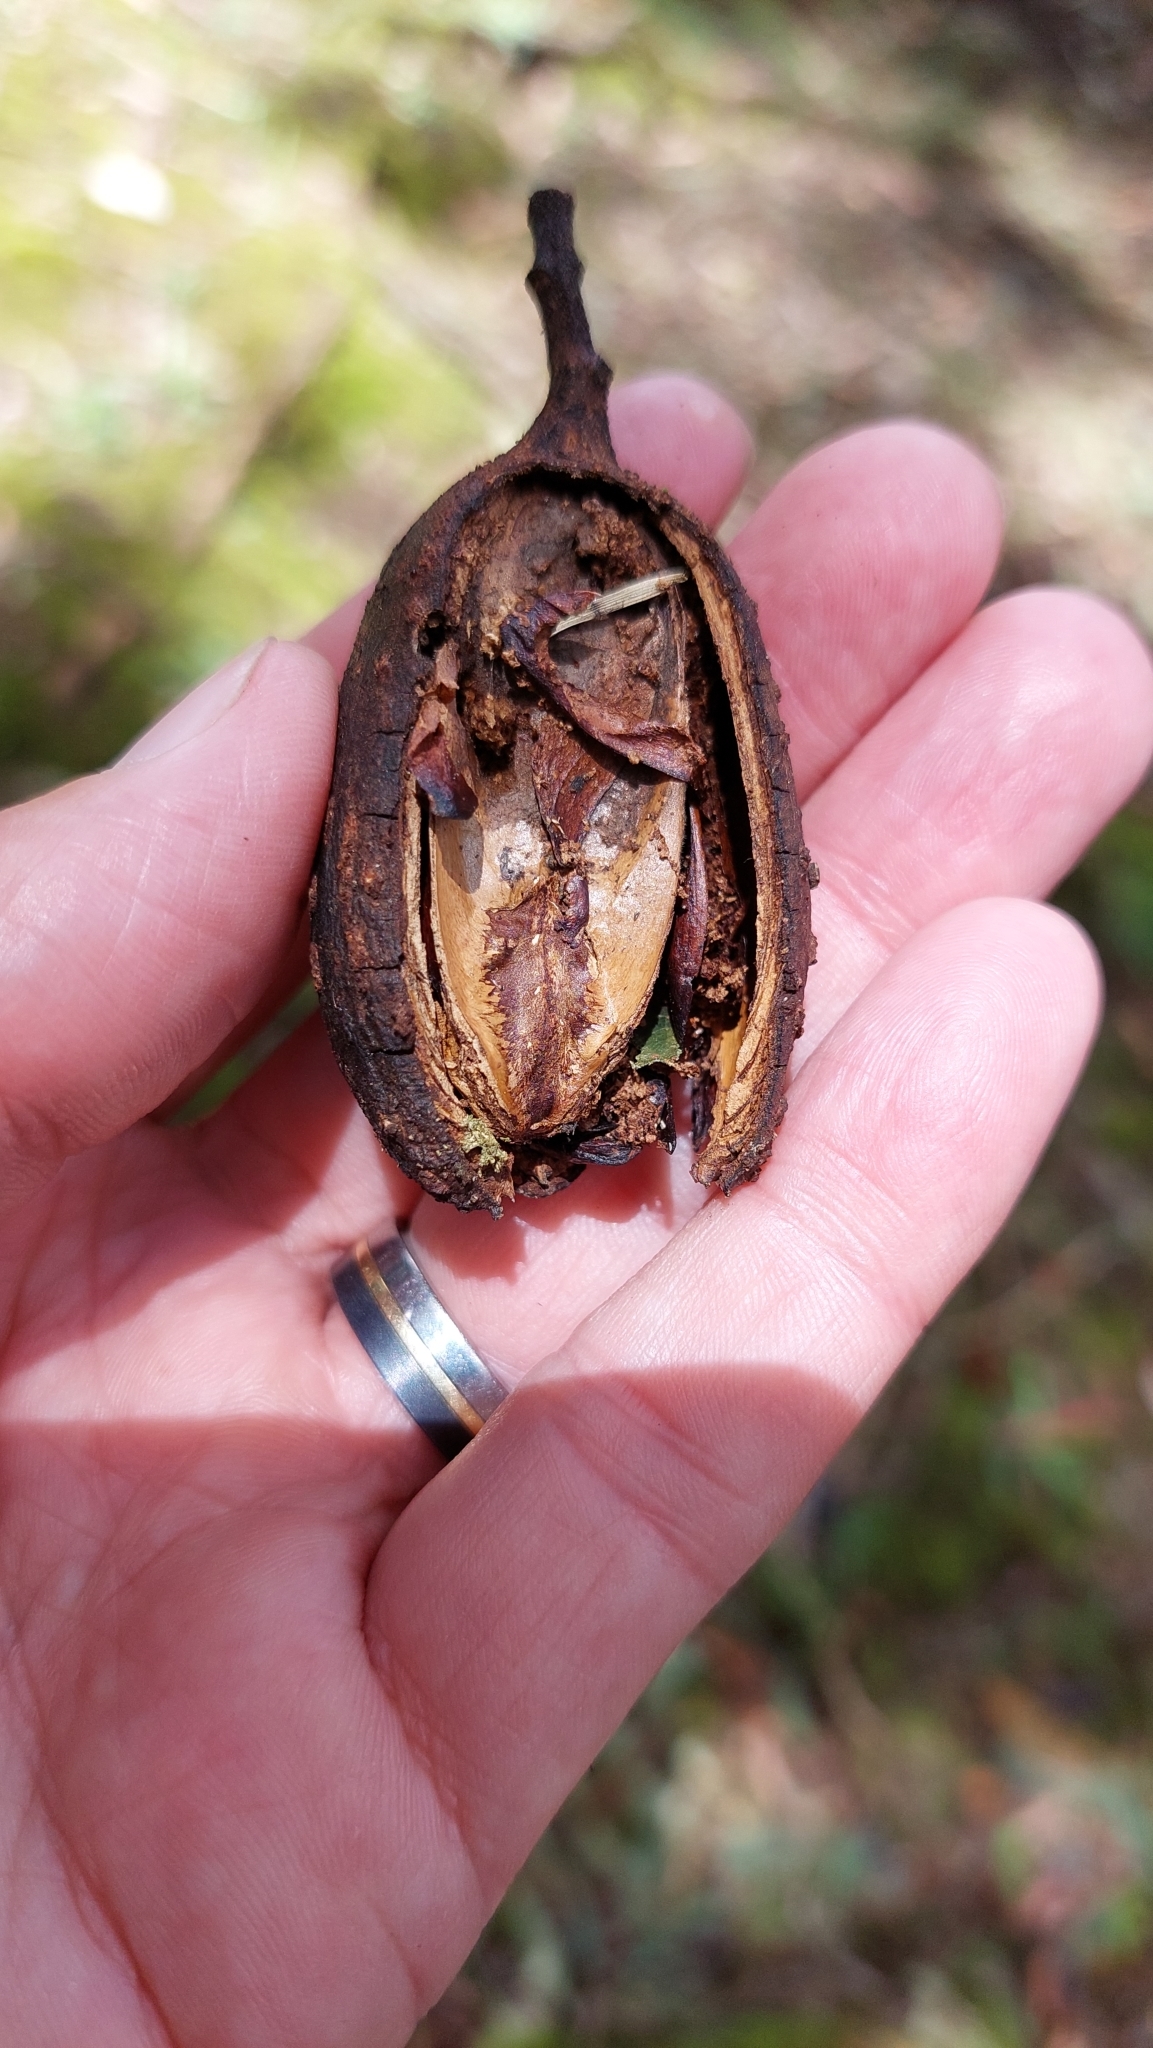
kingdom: Plantae
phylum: Tracheophyta
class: Magnoliopsida
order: Sapindales
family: Meliaceae
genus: Cedrela
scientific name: Cedrela montana
